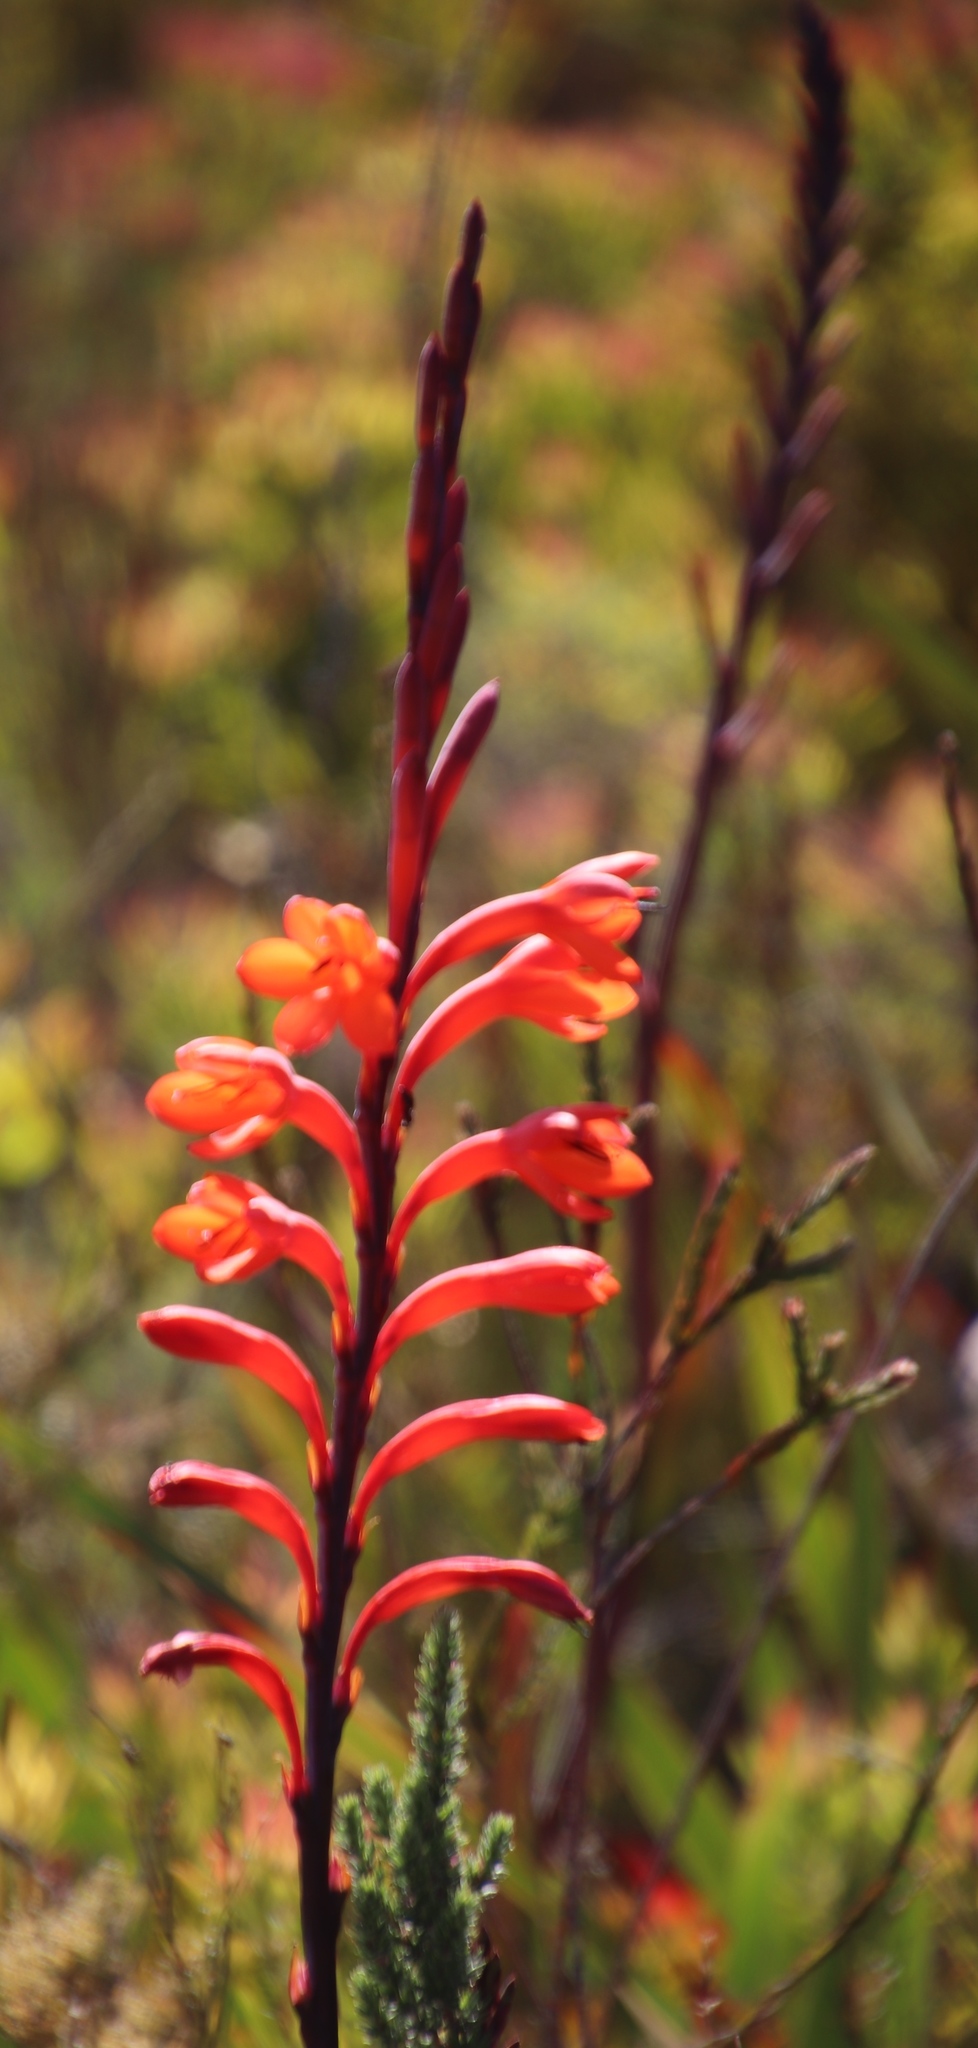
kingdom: Plantae
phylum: Tracheophyta
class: Liliopsida
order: Asparagales
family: Iridaceae
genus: Watsonia
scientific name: Watsonia tabularis
